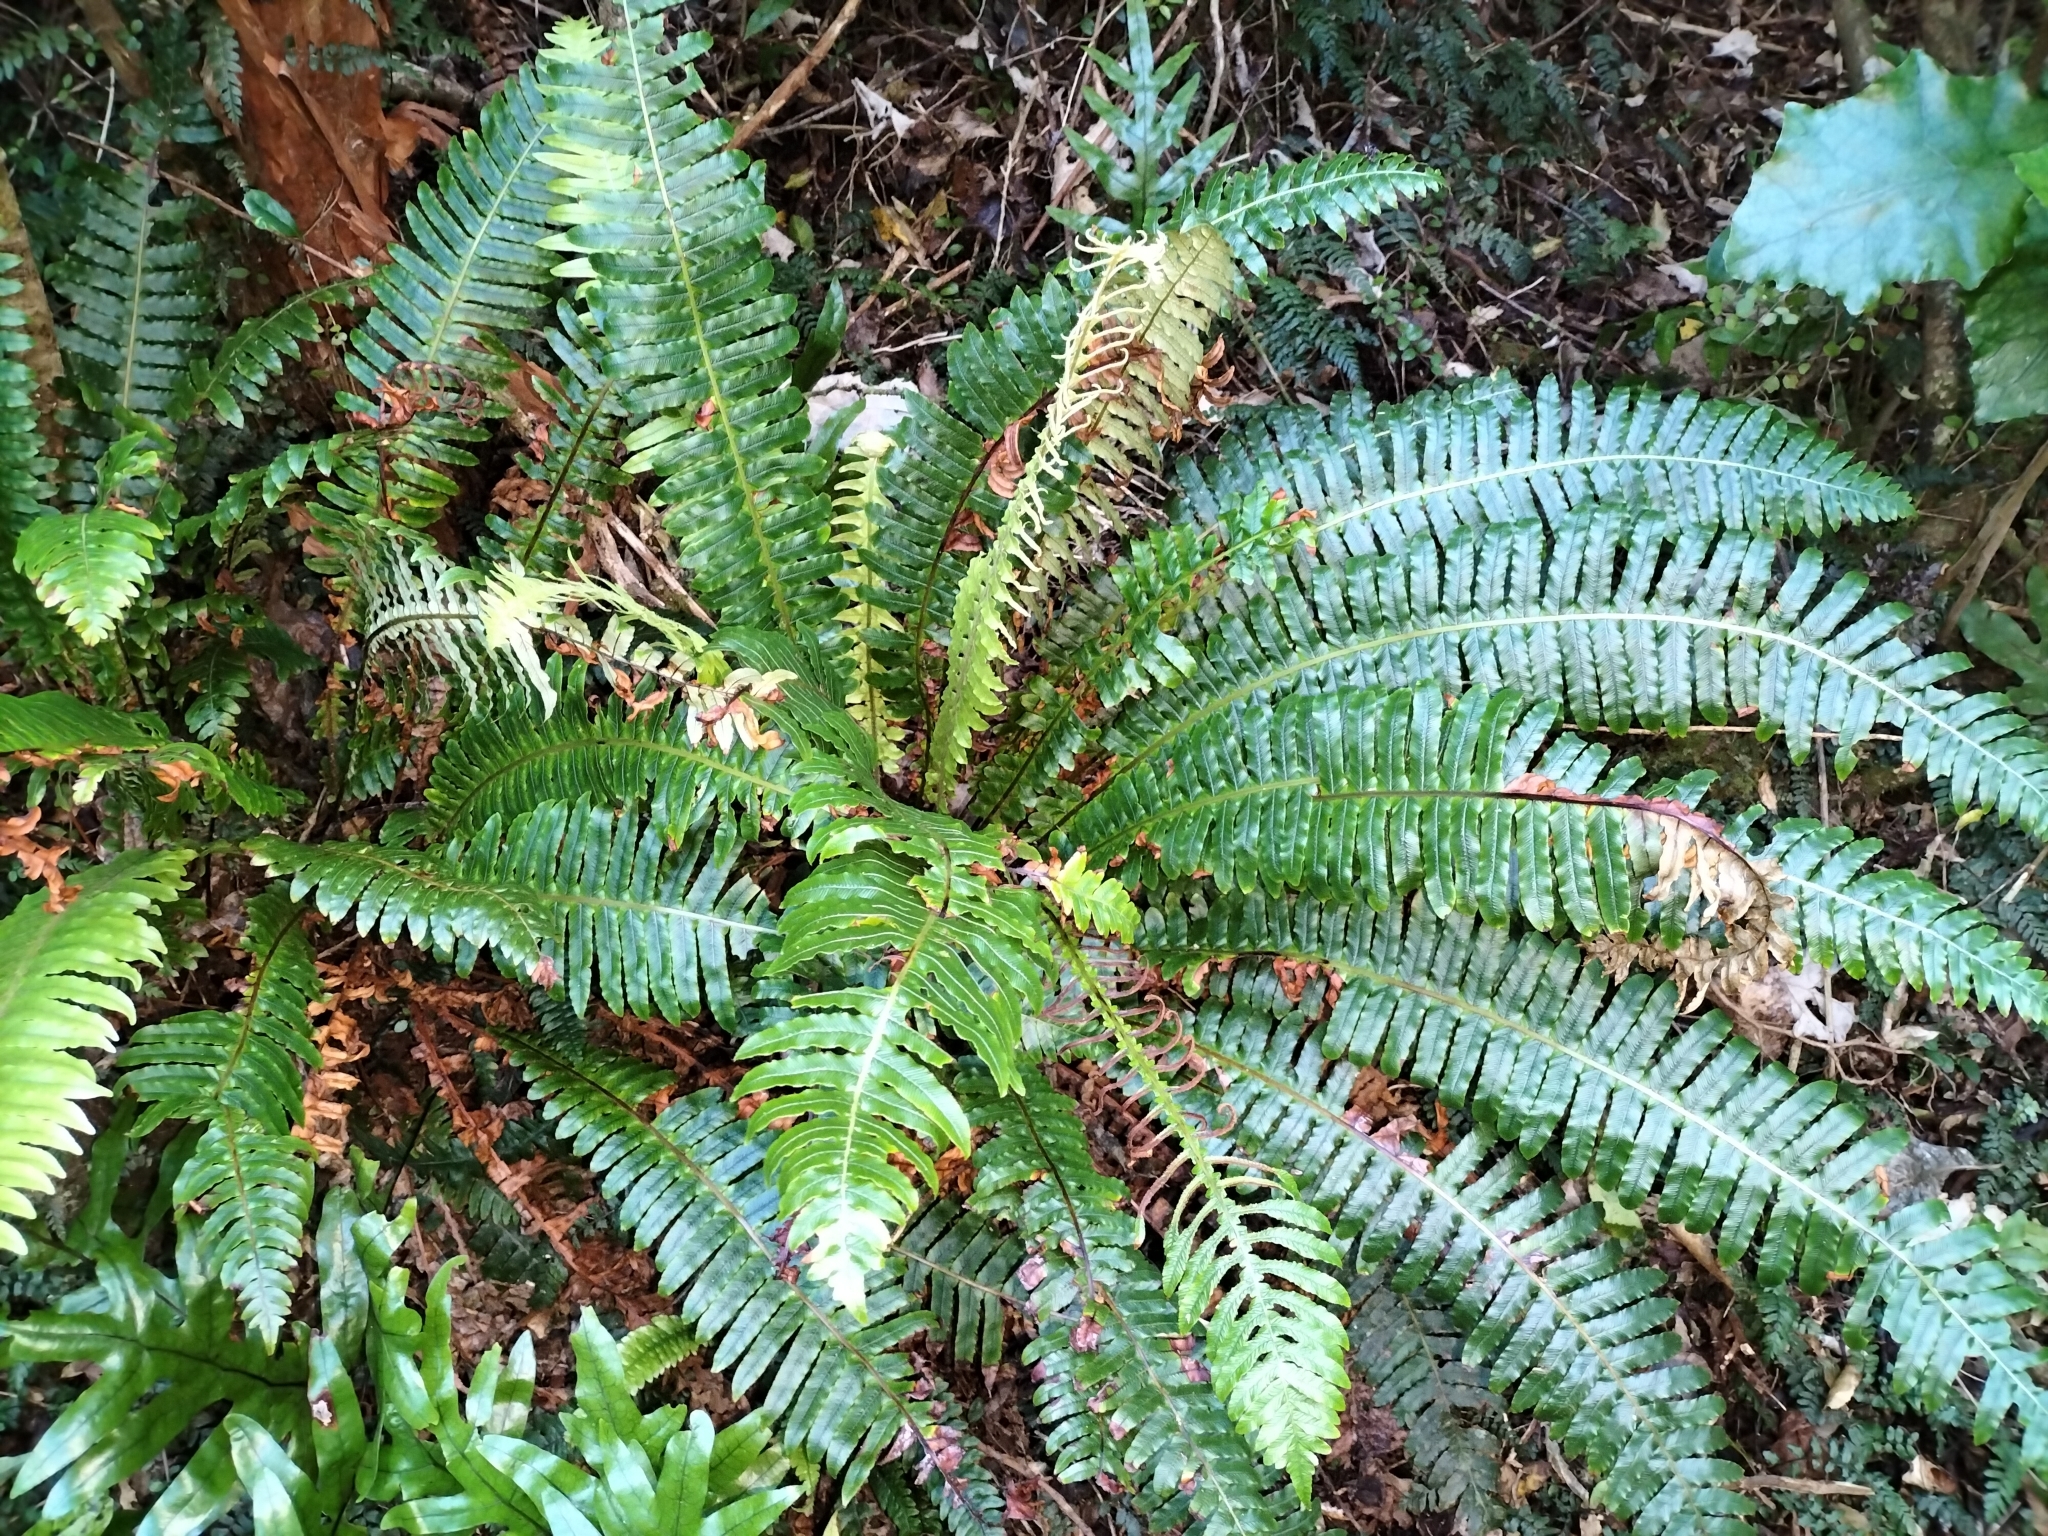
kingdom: Plantae
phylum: Tracheophyta
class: Polypodiopsida
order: Polypodiales
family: Blechnaceae
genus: Lomaria
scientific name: Lomaria discolor
